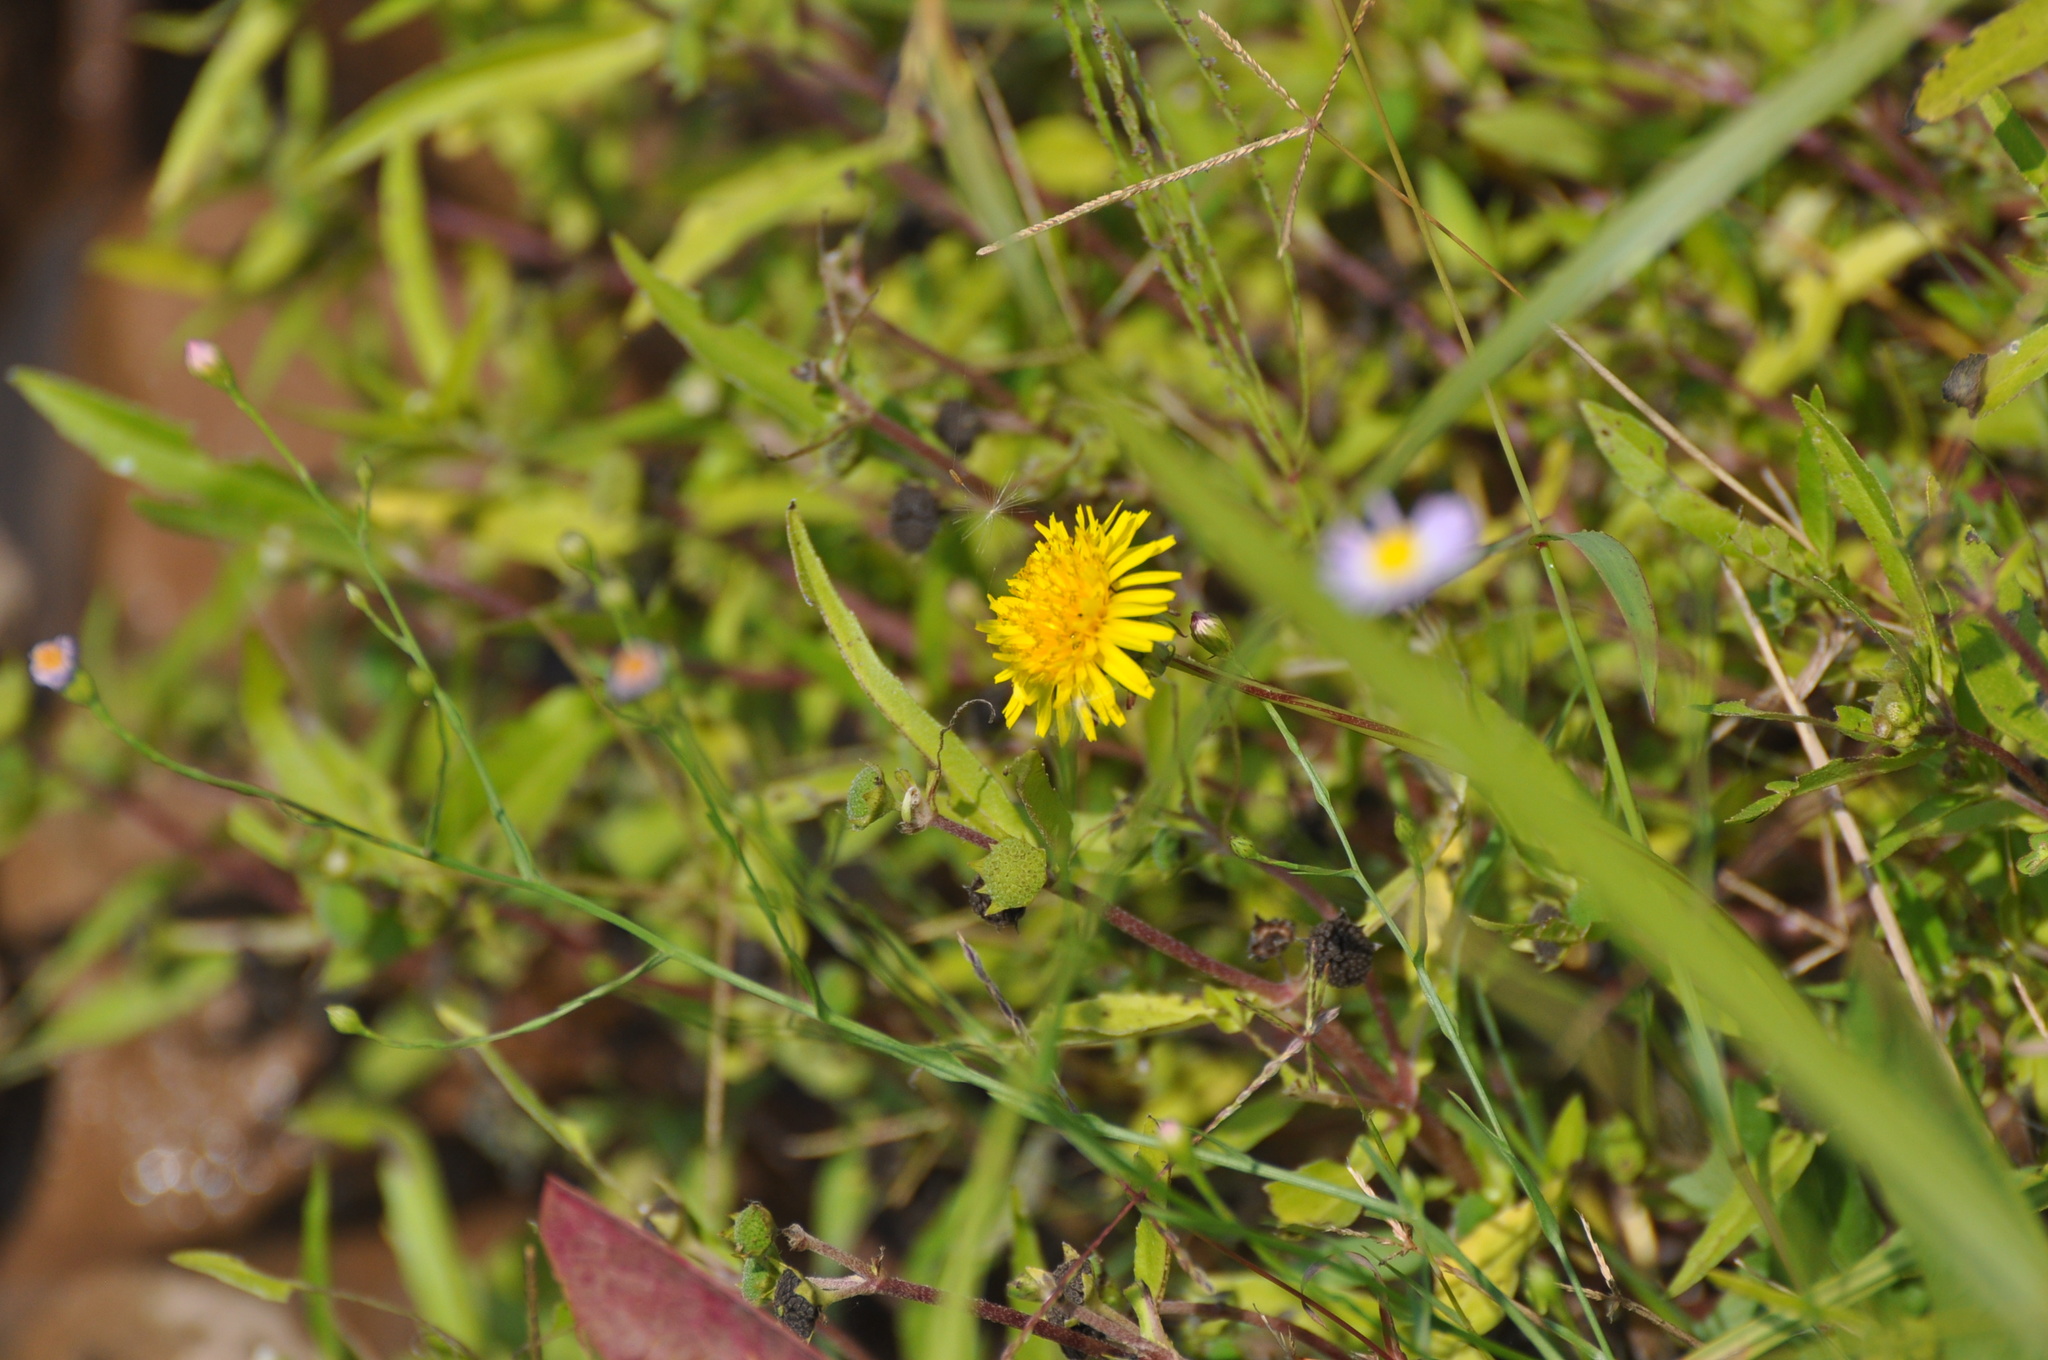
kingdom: Plantae
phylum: Tracheophyta
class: Magnoliopsida
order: Asterales
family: Asteraceae
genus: Taraxacum
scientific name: Taraxacum officinale
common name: Common dandelion
